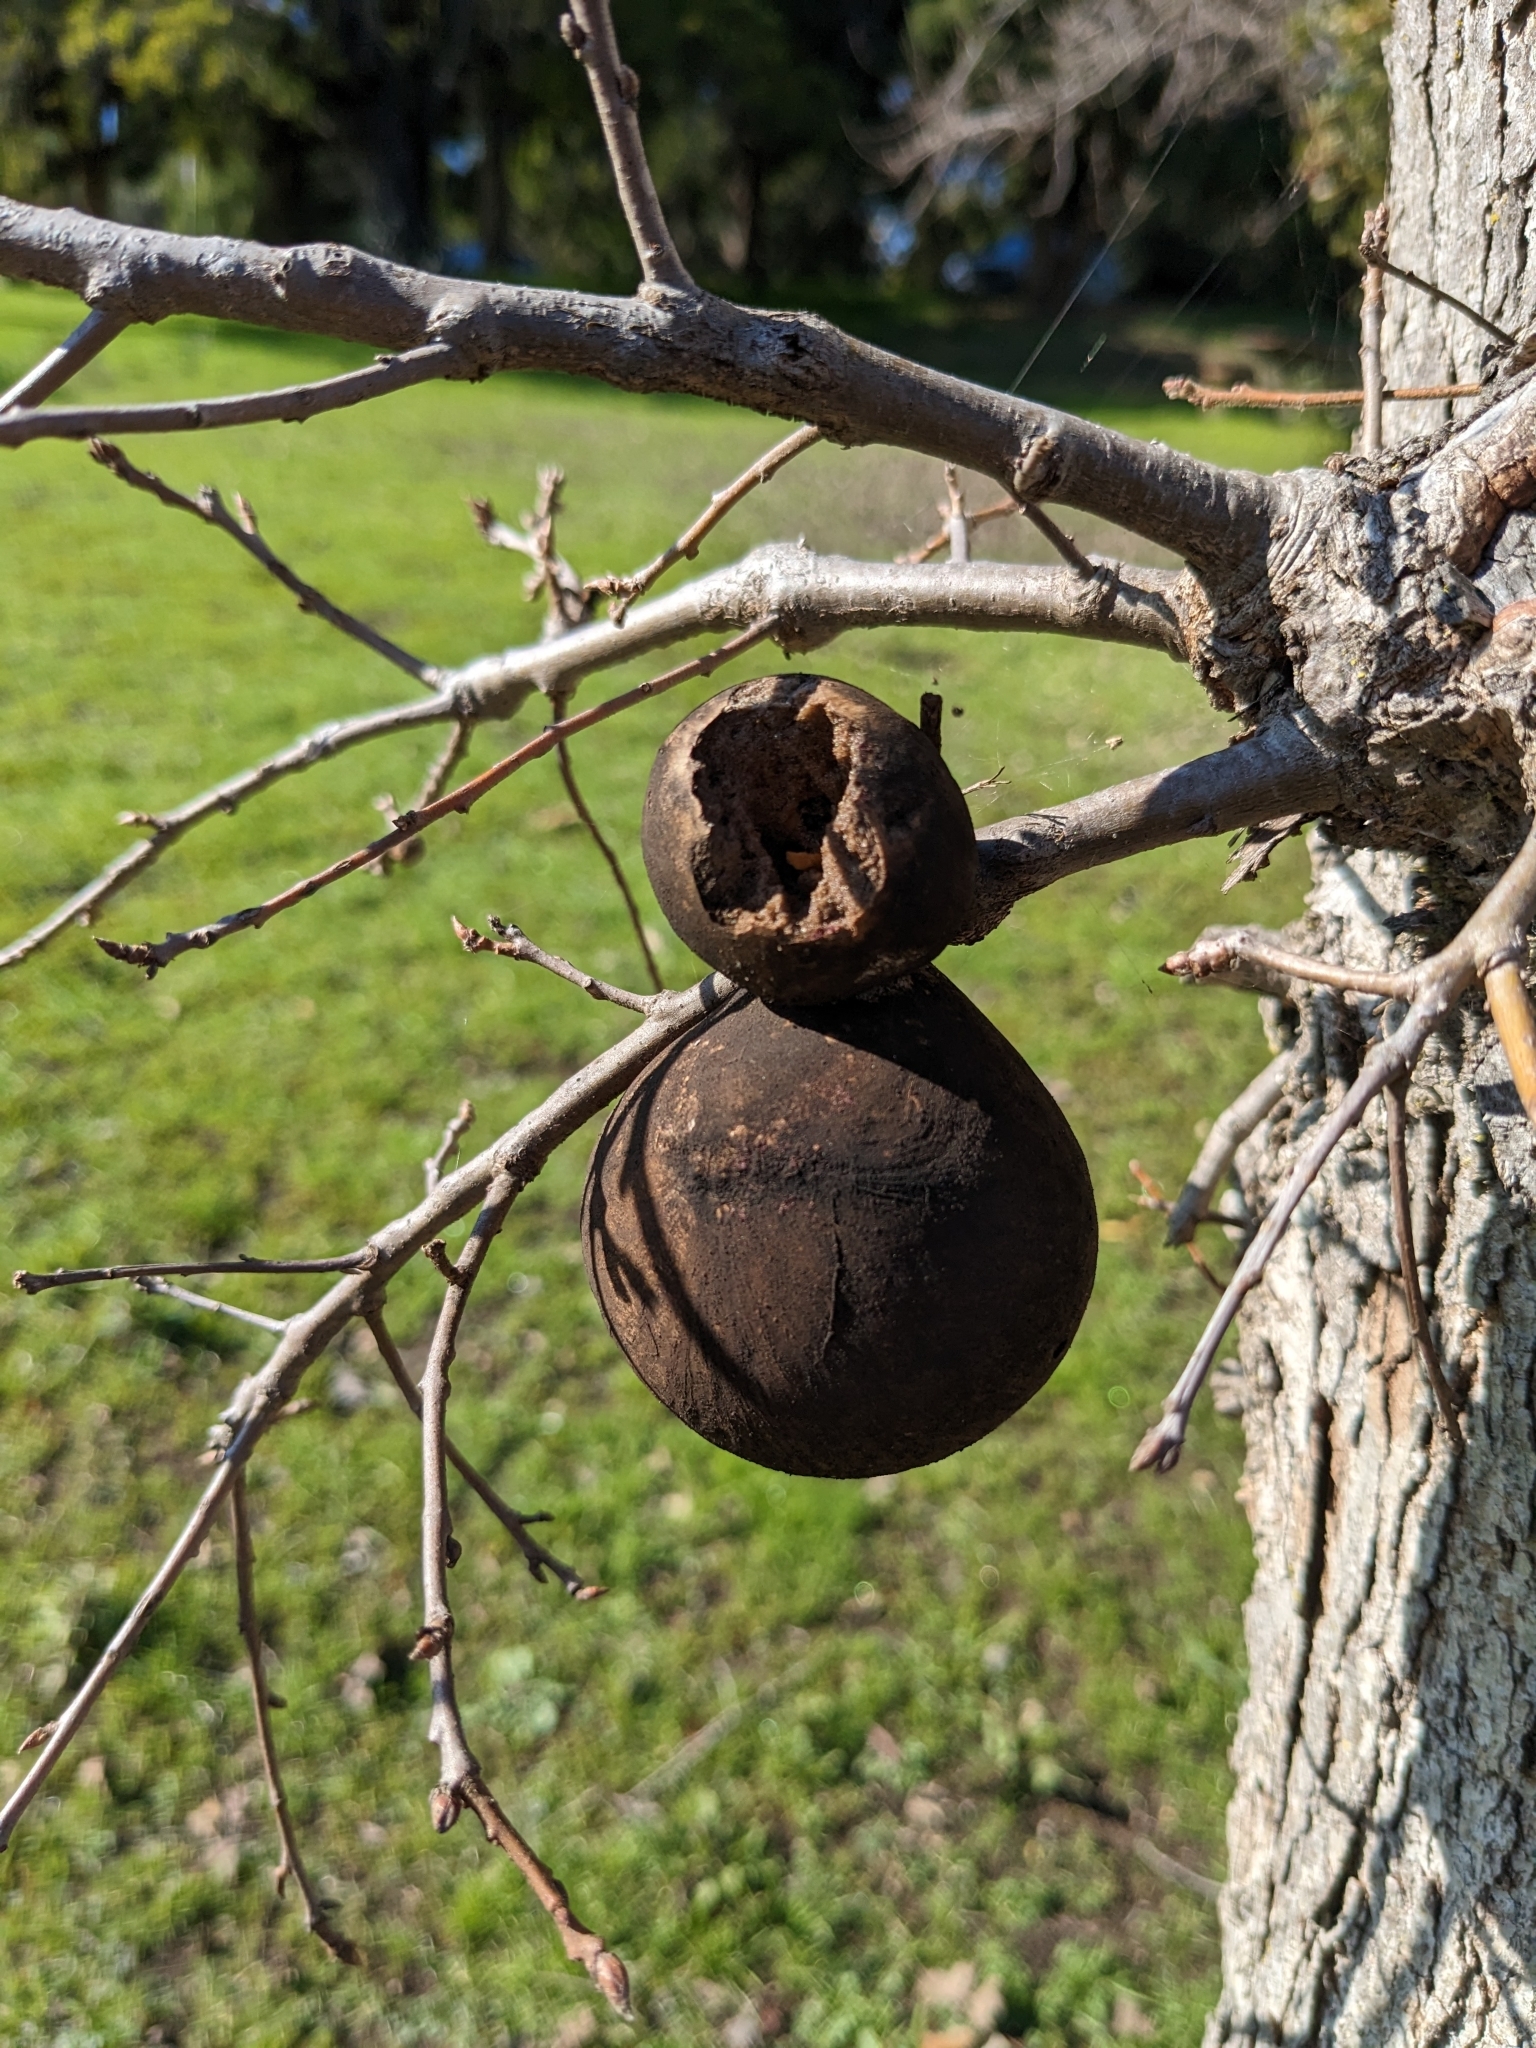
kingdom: Animalia
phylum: Arthropoda
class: Insecta
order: Hymenoptera
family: Cynipidae
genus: Andricus
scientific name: Andricus quercuscalifornicus
